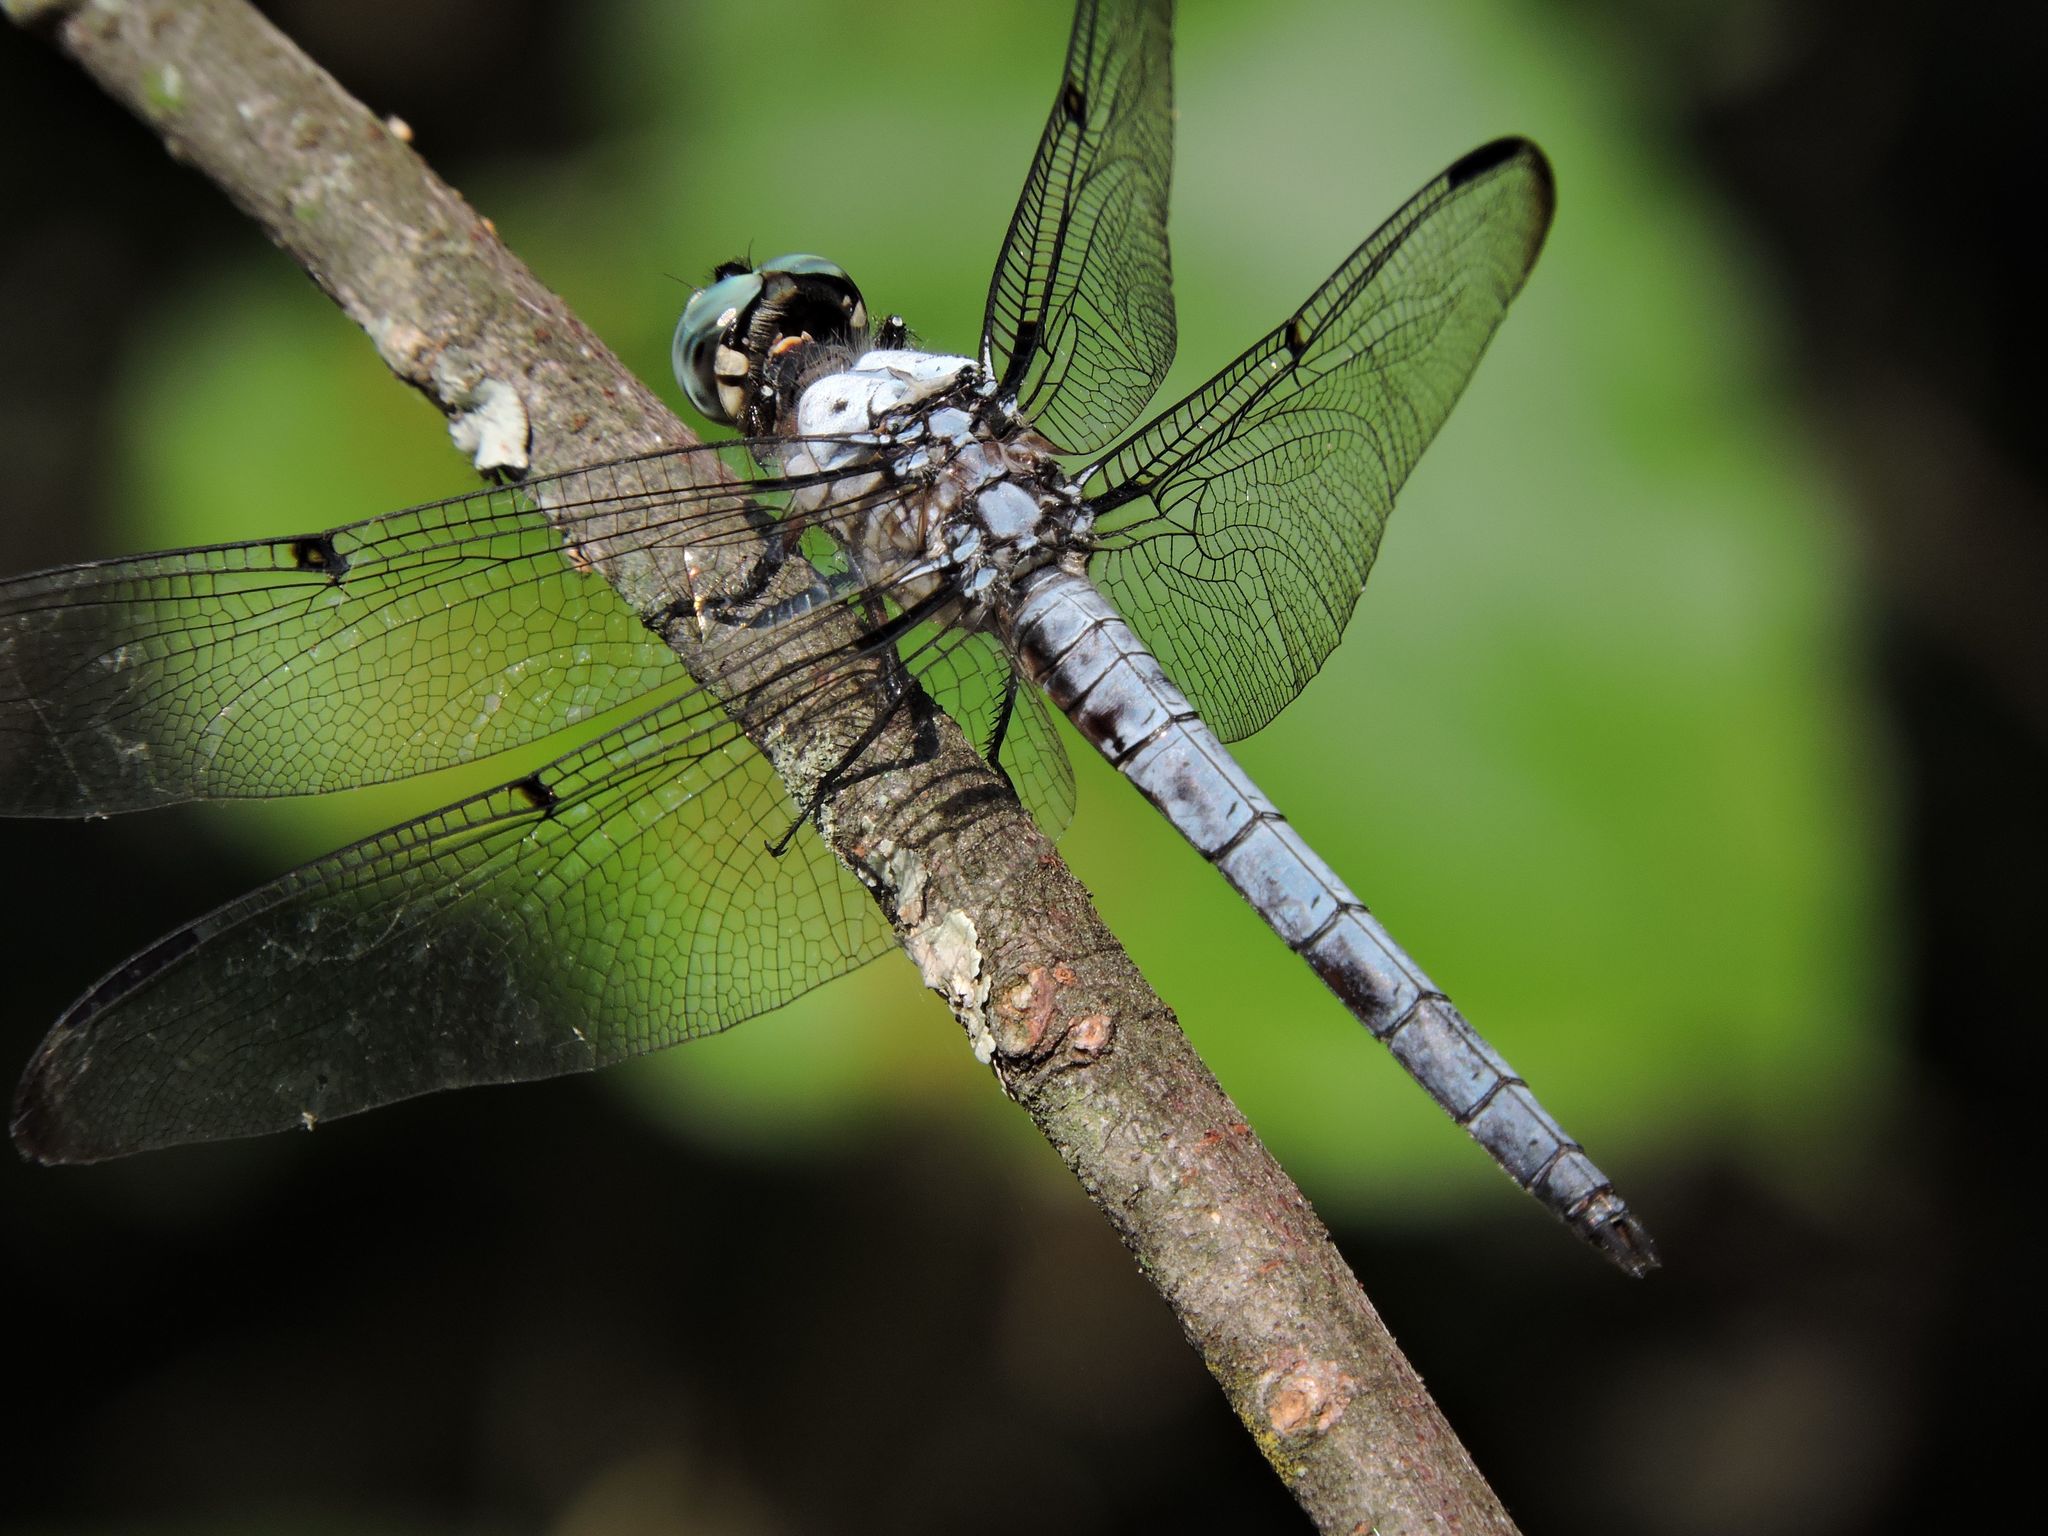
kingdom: Animalia
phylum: Arthropoda
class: Insecta
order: Odonata
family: Libellulidae
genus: Libellula
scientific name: Libellula vibrans
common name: Great blue skimmer
